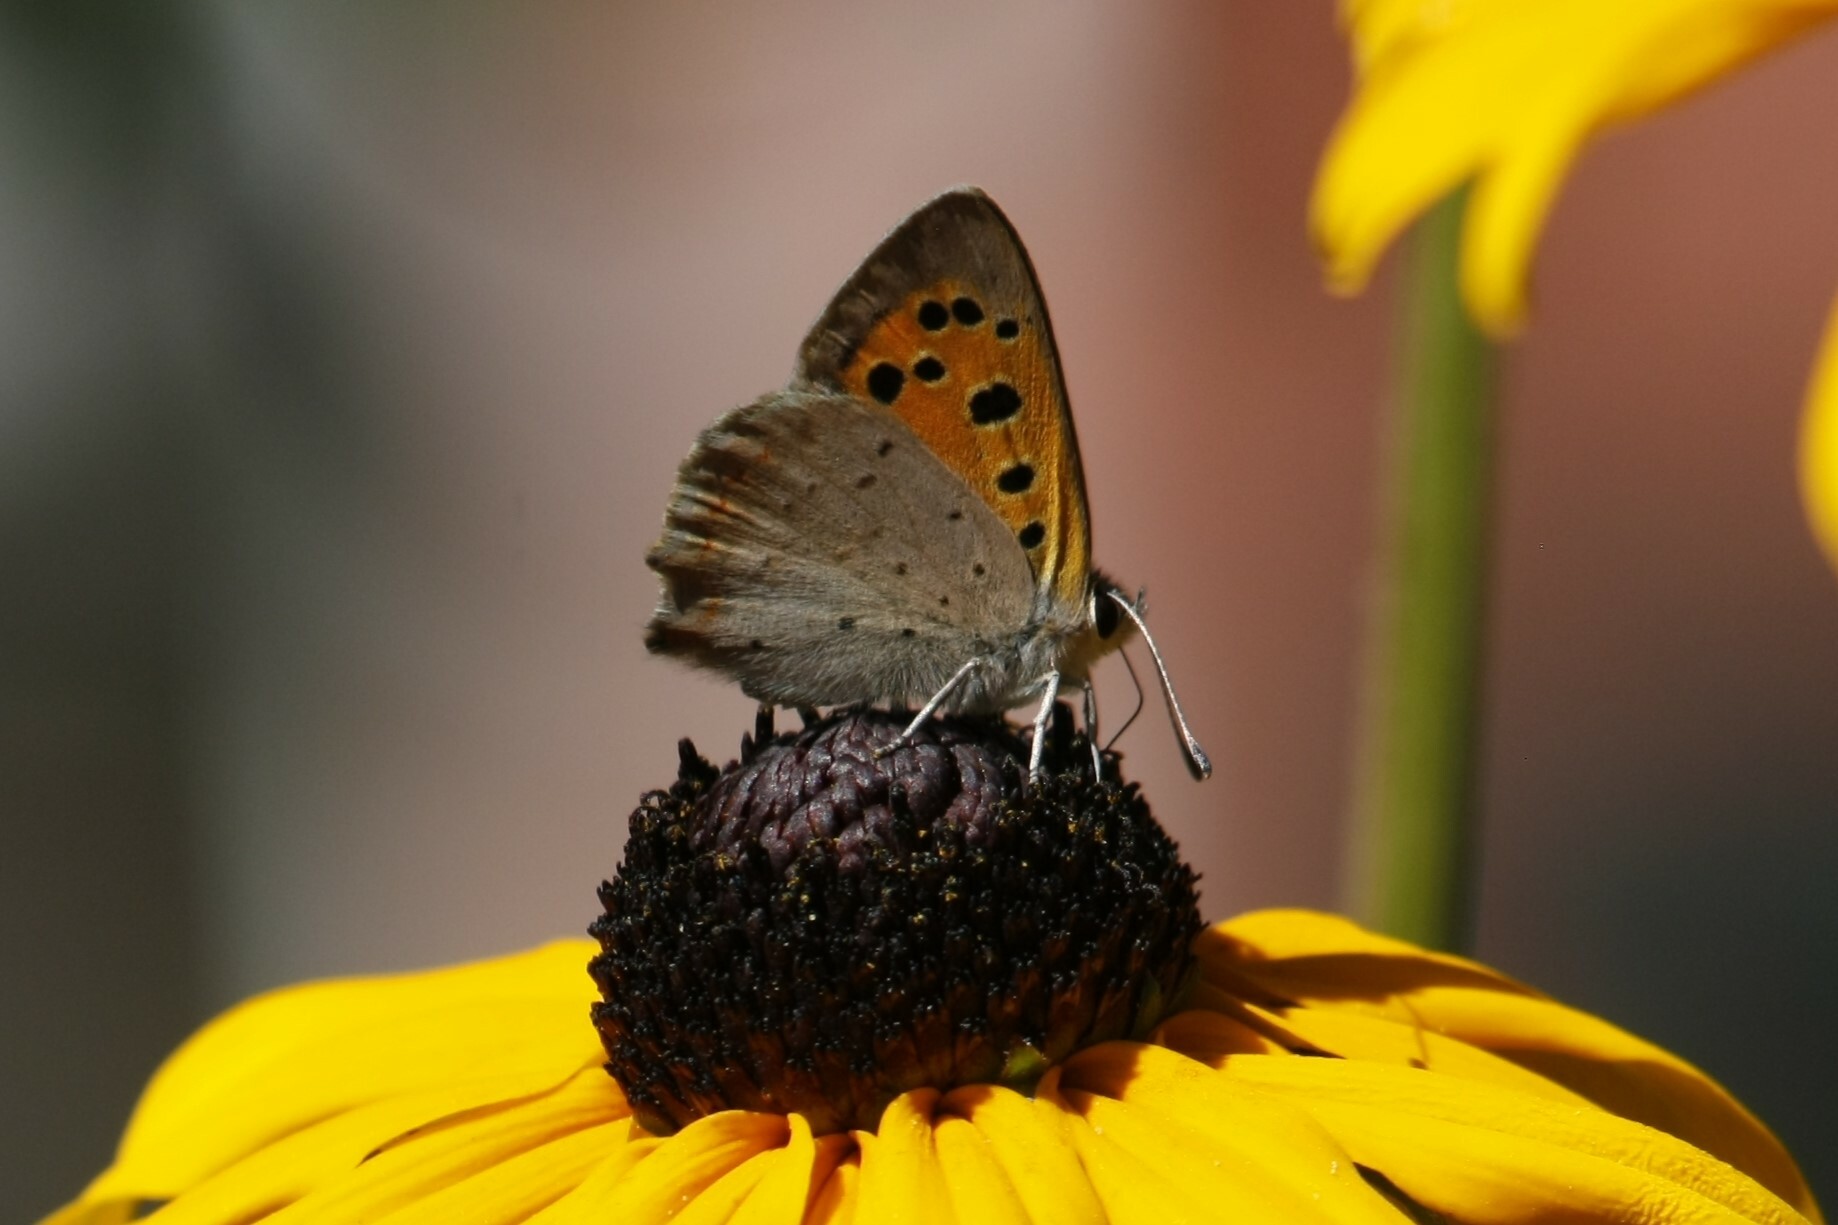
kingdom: Animalia
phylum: Arthropoda
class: Insecta
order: Lepidoptera
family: Lycaenidae
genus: Lycaena
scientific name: Lycaena phlaeas
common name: Small copper
